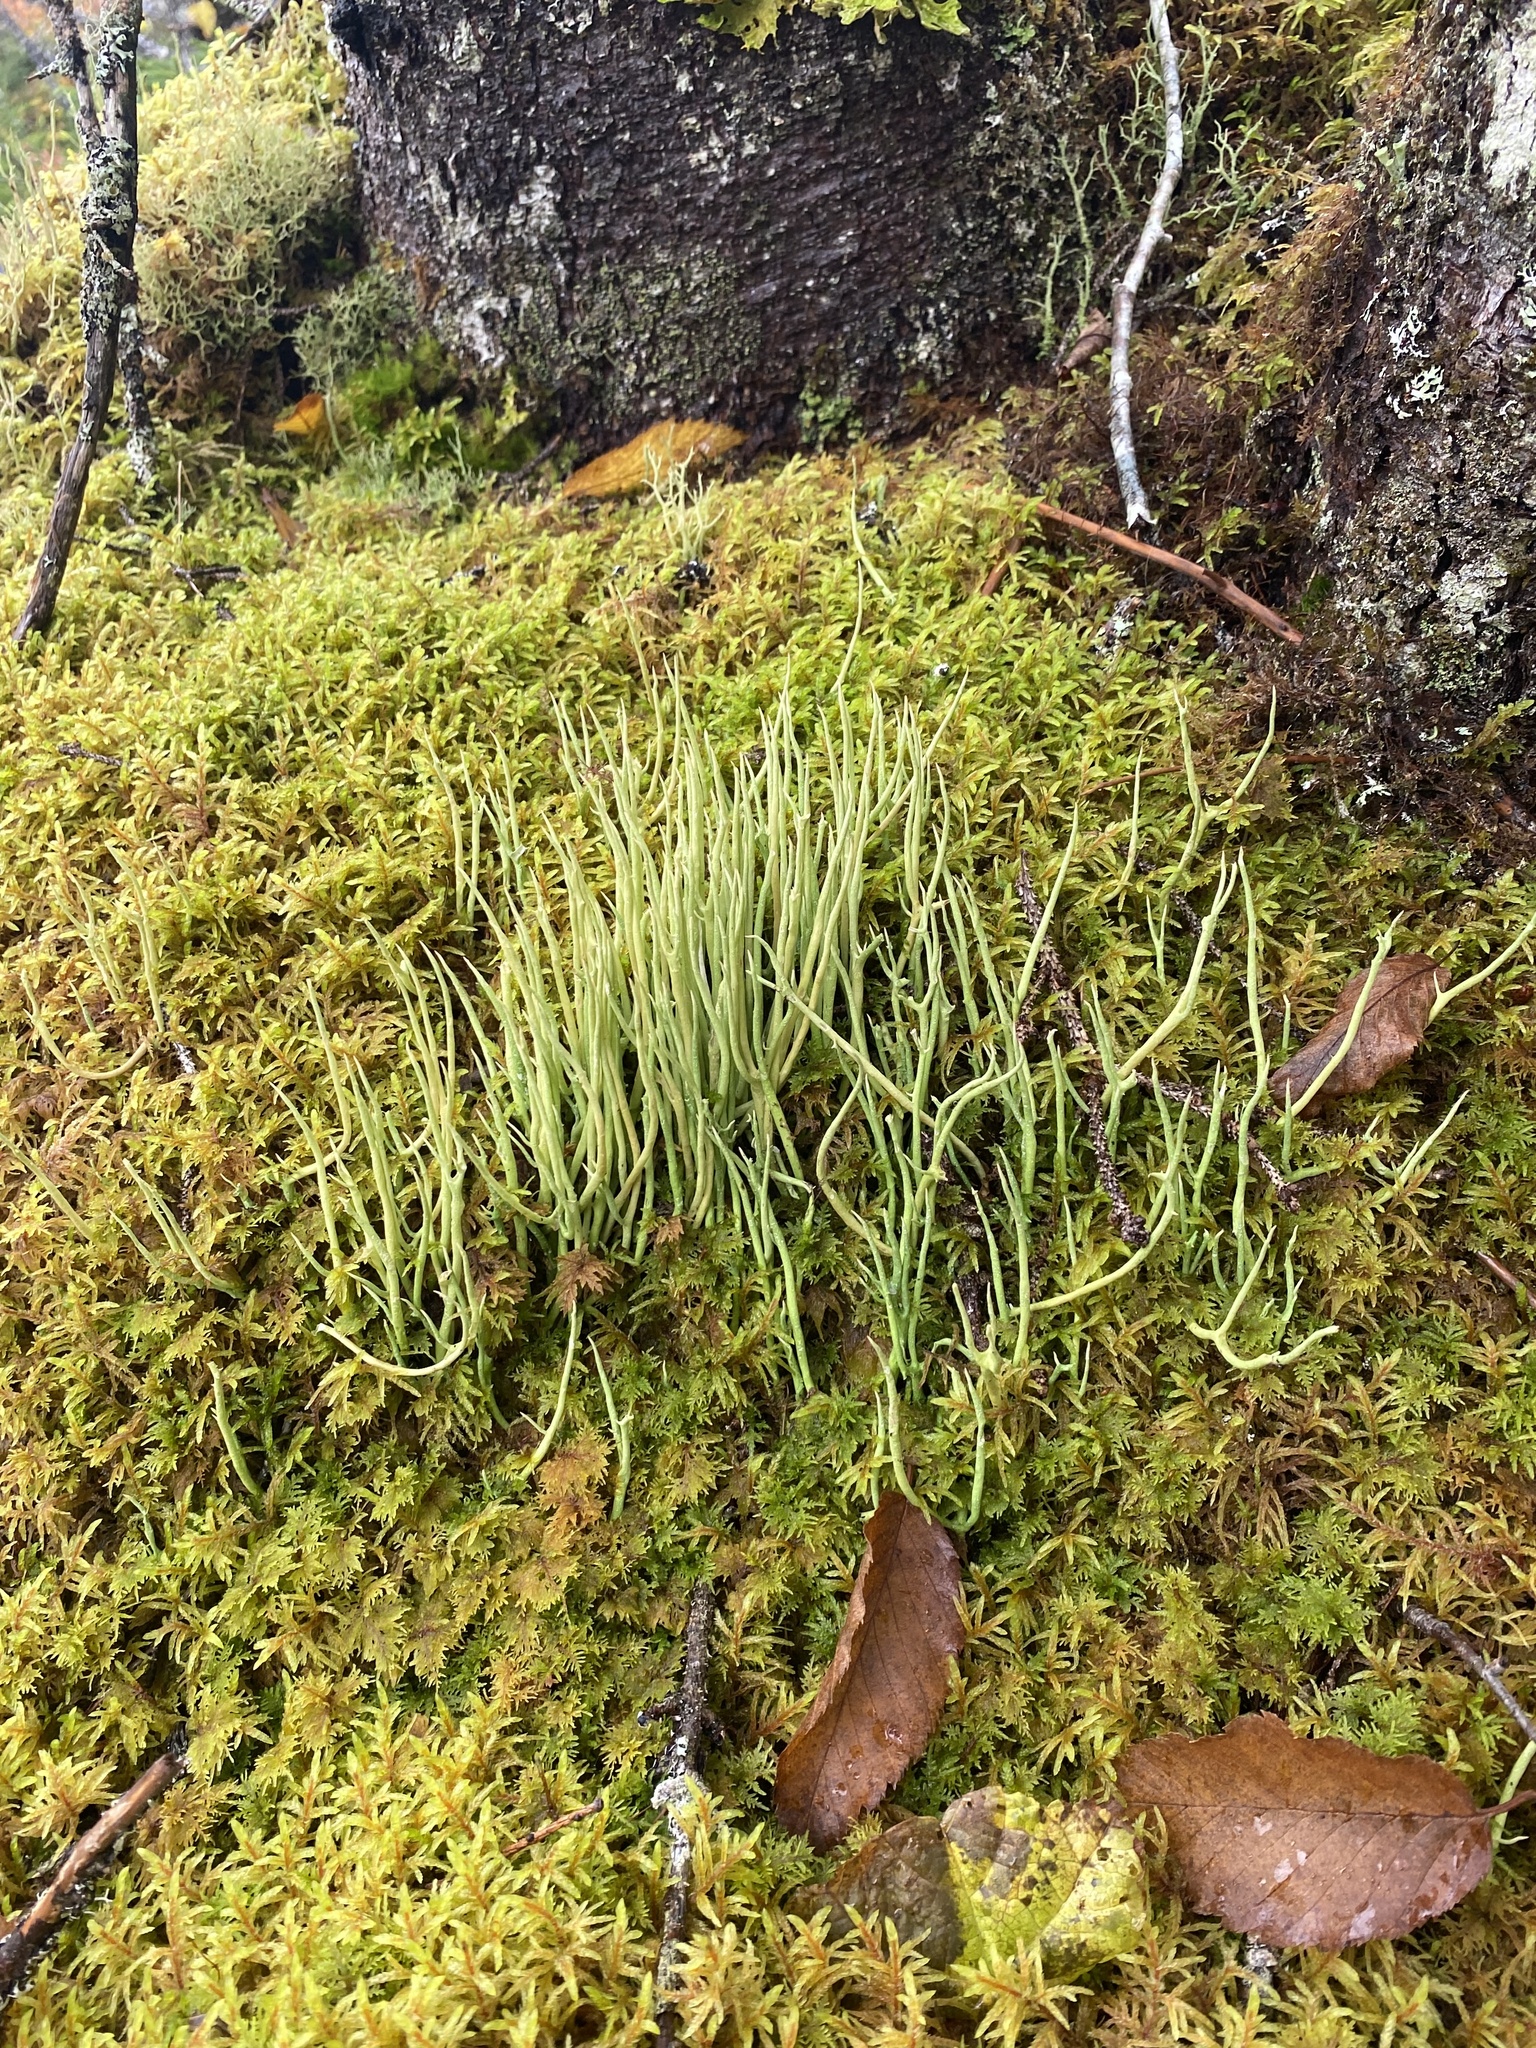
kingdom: Fungi
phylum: Ascomycota
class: Lecanoromycetes
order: Lecanorales
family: Cladoniaceae
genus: Cladonia
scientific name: Cladonia maxima
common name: Giant cladonia lichen
